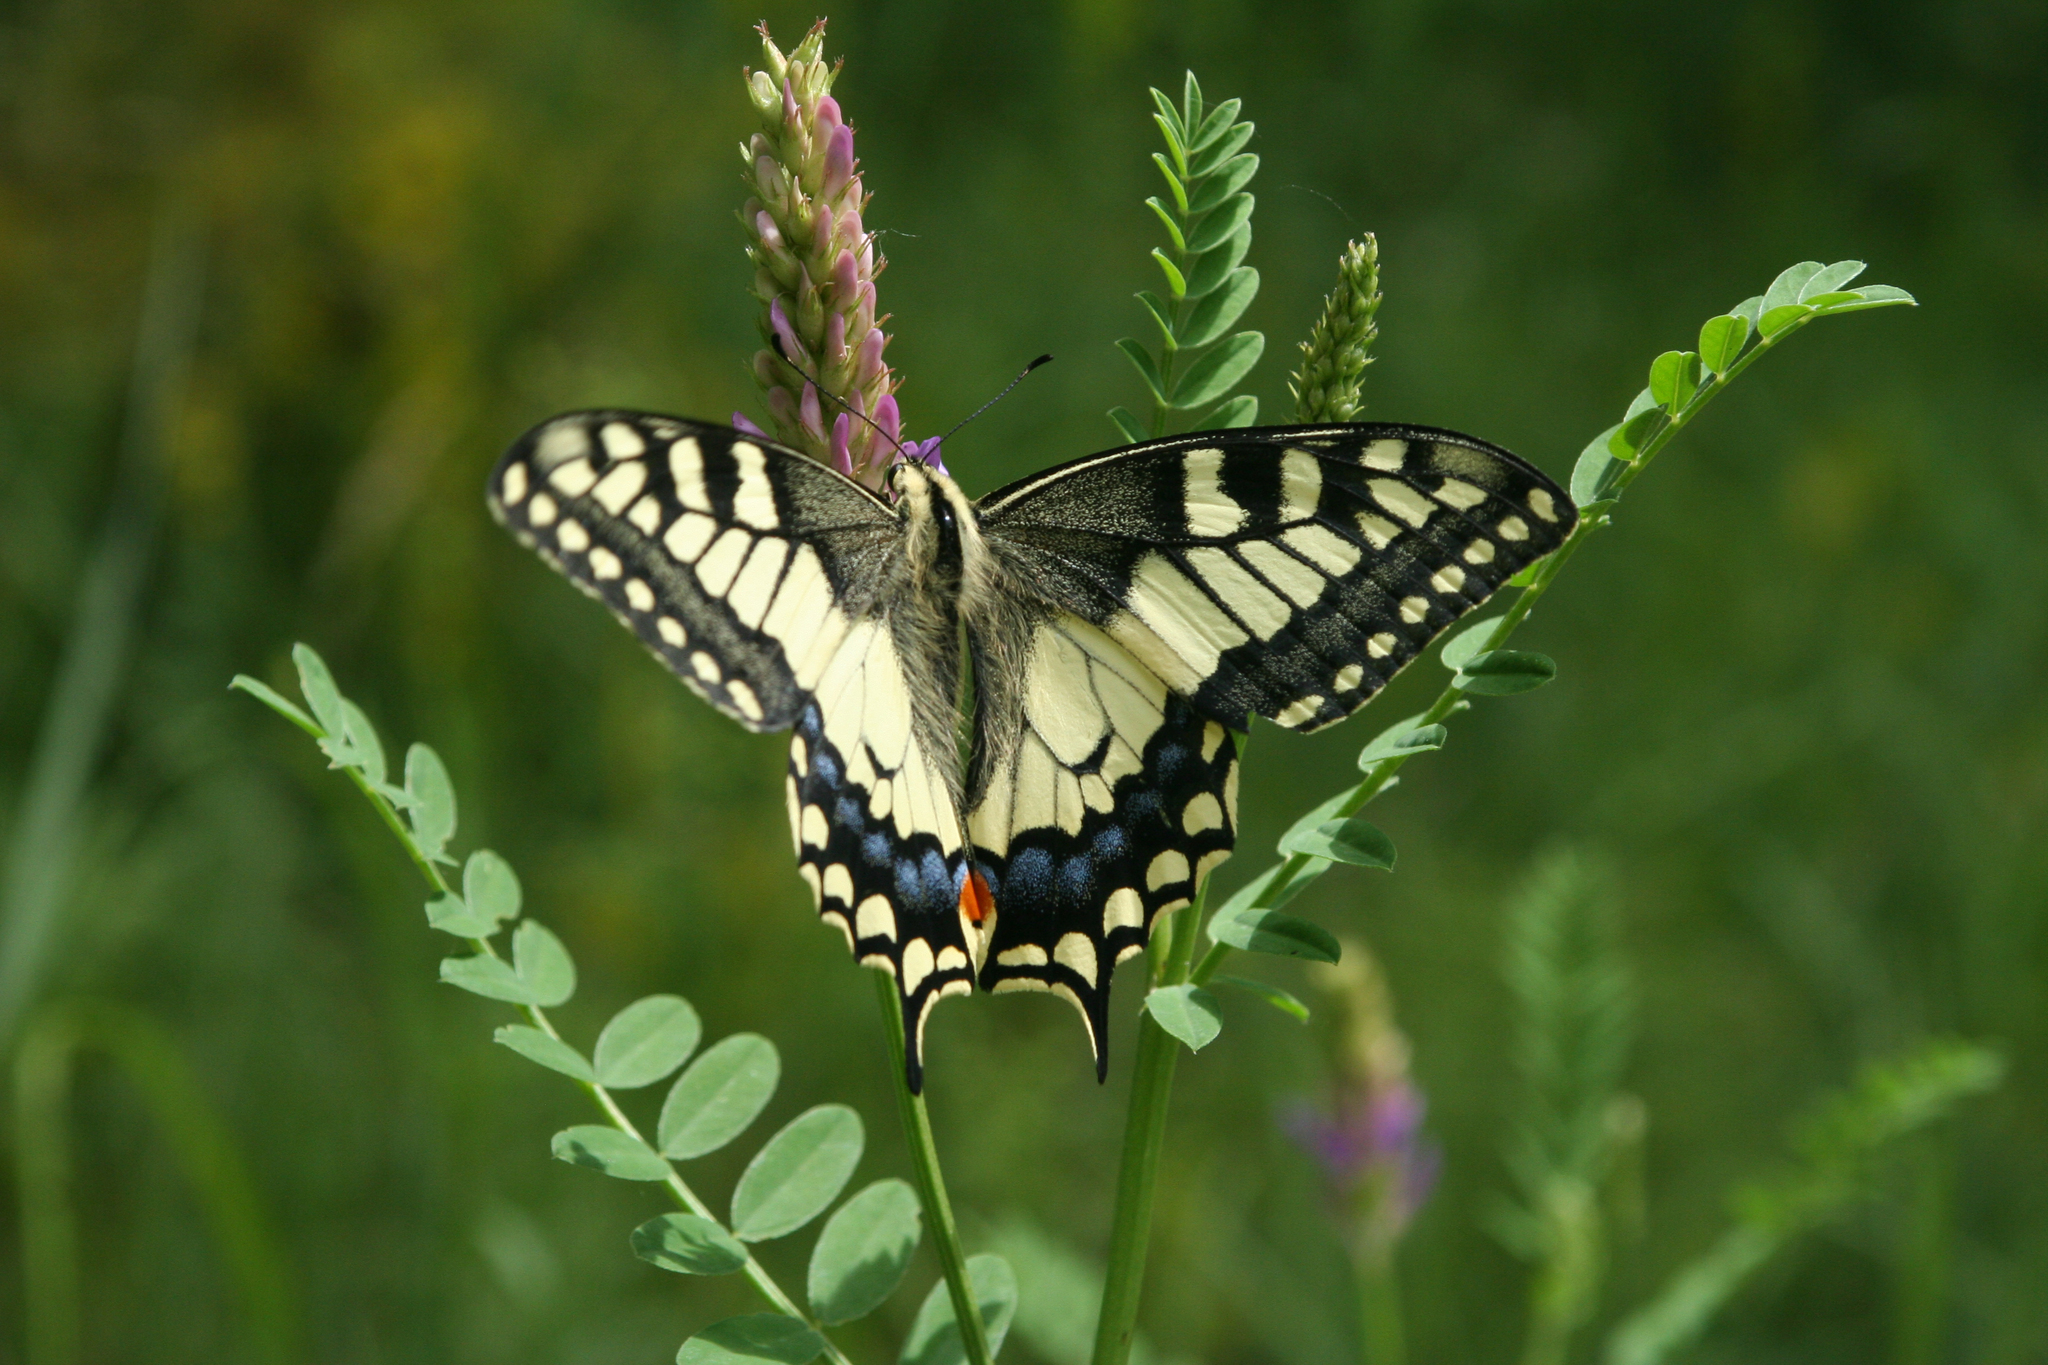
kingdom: Plantae
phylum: Tracheophyta
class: Magnoliopsida
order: Fabales
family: Fabaceae
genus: Astragalus
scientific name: Astragalus laxmannii
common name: Laxmann's milk-vetch
